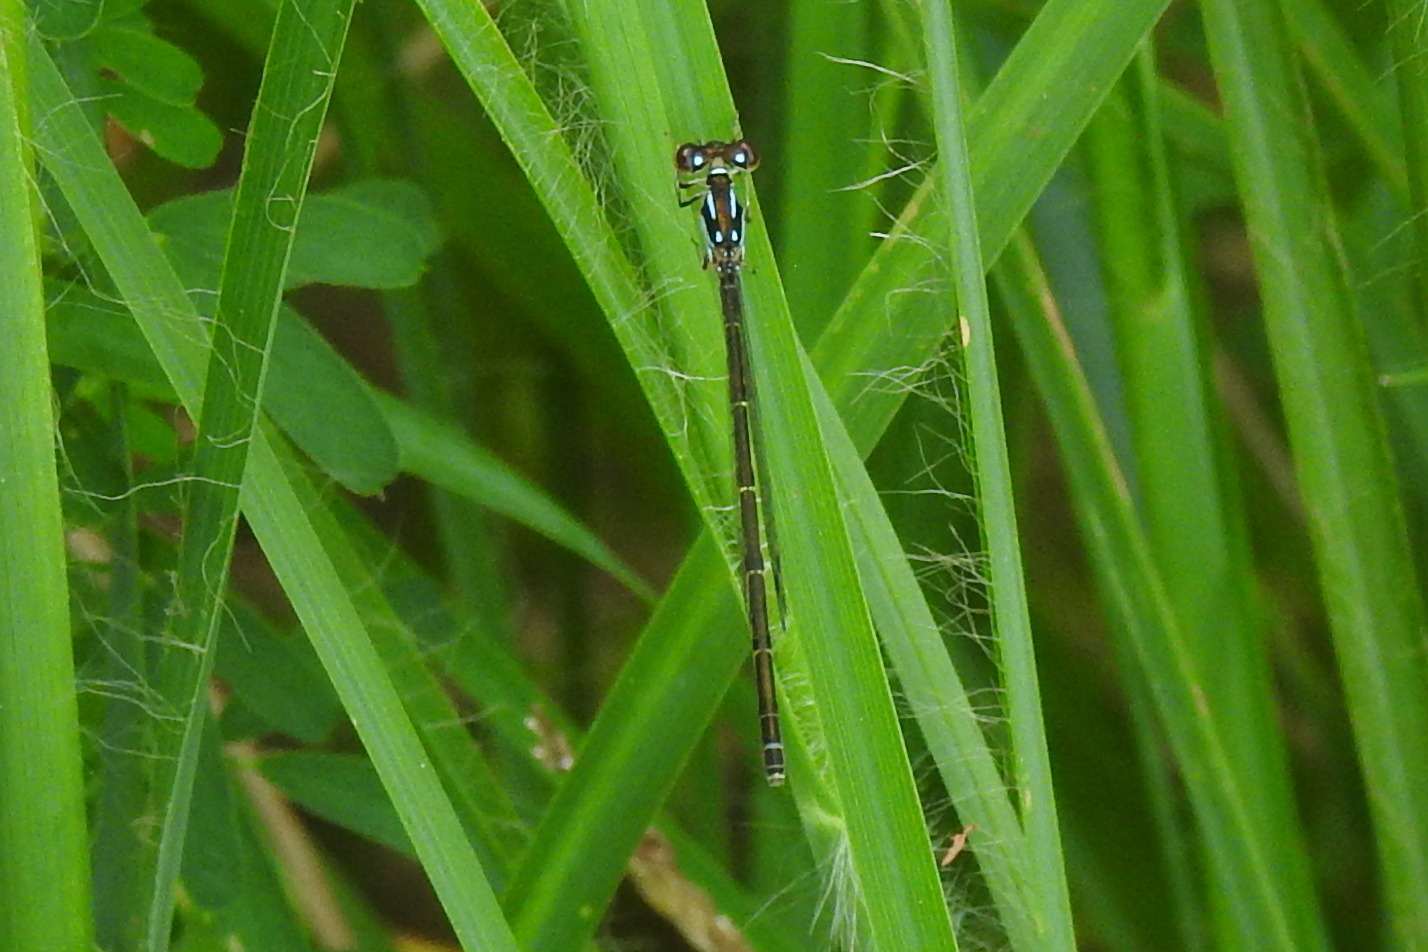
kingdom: Animalia
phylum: Arthropoda
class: Insecta
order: Odonata
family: Coenagrionidae
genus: Ischnura
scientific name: Ischnura posita
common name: Fragile forktail
